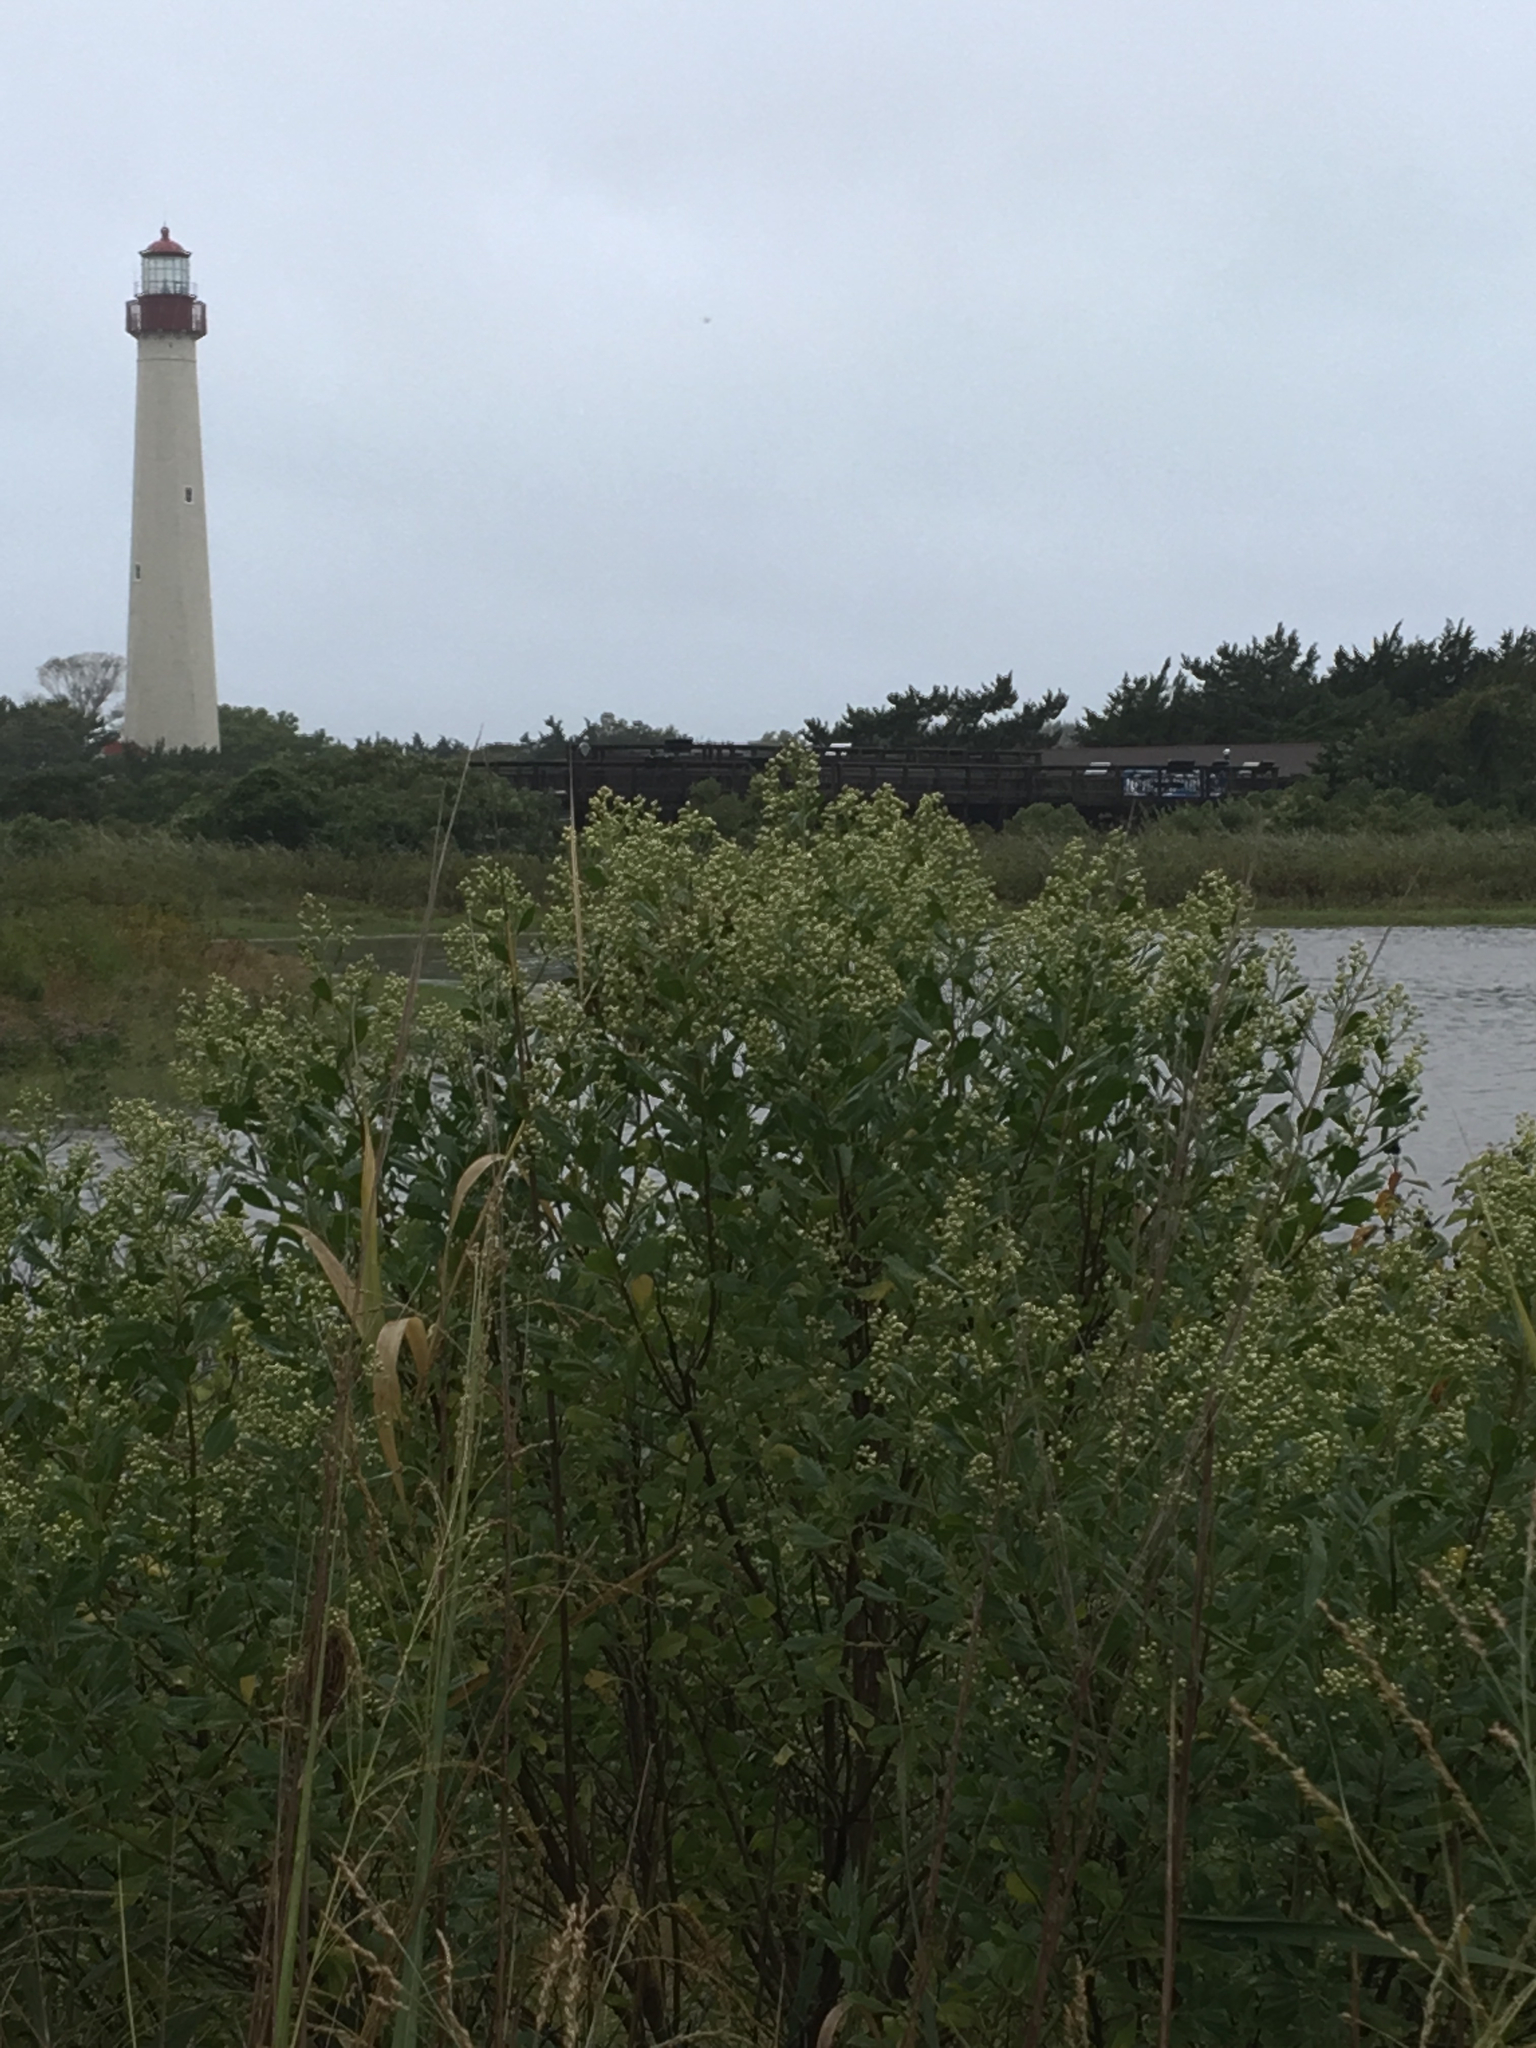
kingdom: Plantae
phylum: Tracheophyta
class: Magnoliopsida
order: Asterales
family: Asteraceae
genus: Baccharis
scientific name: Baccharis halimifolia
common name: Eastern baccharis
